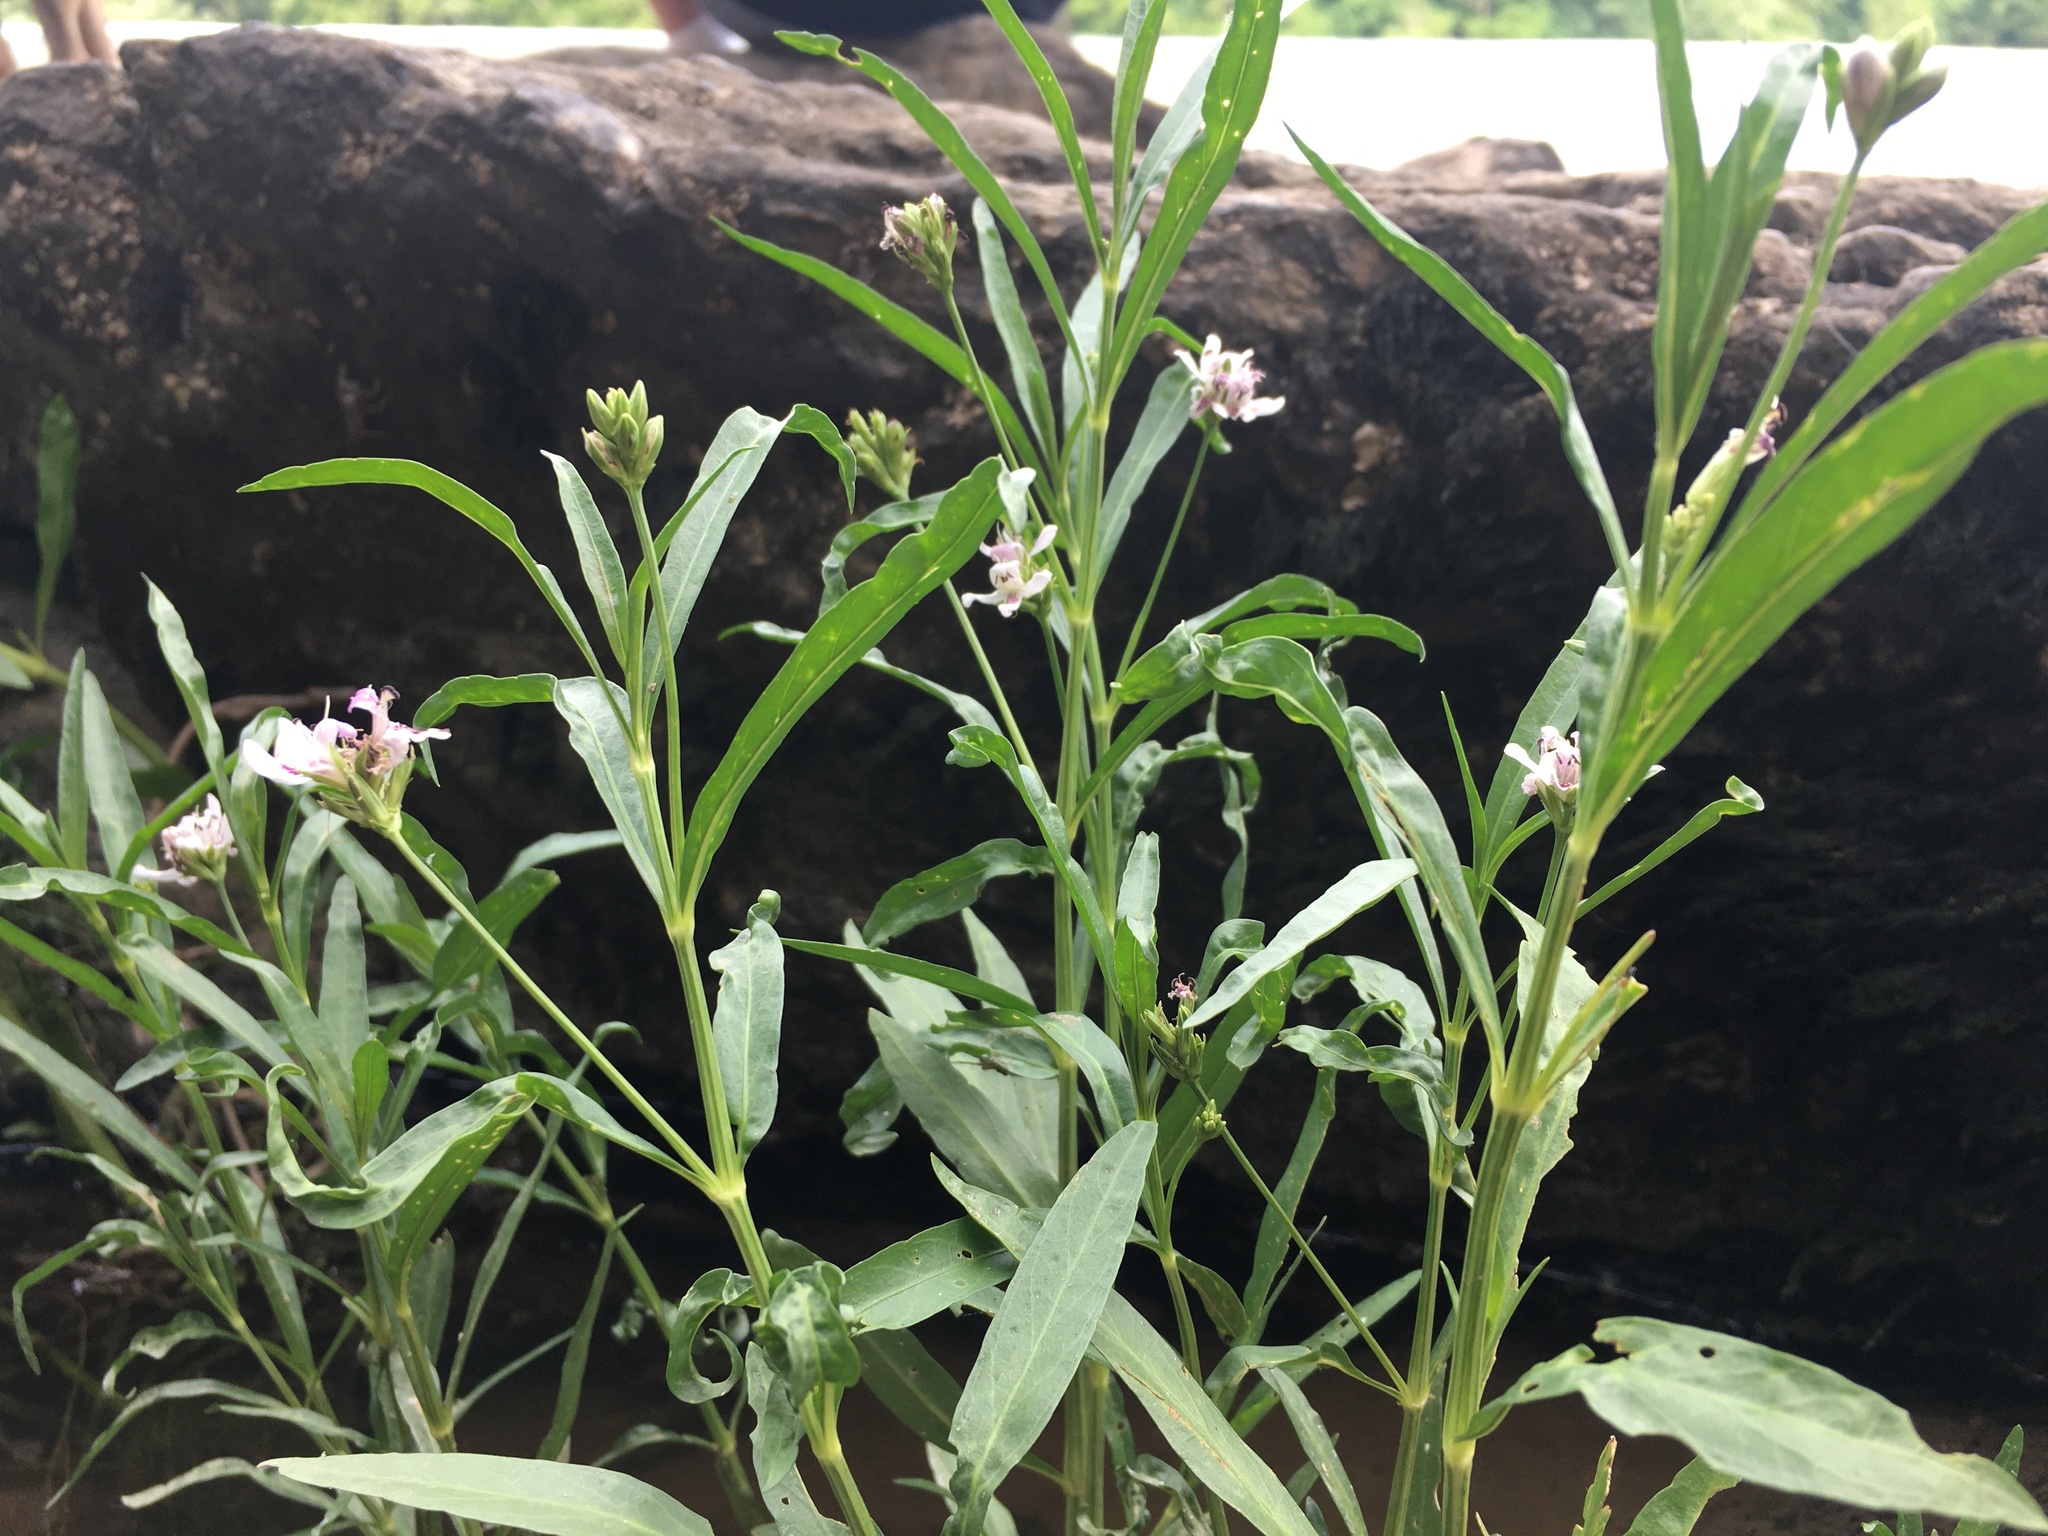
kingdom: Plantae
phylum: Tracheophyta
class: Magnoliopsida
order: Lamiales
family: Acanthaceae
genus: Dianthera
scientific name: Dianthera americana
